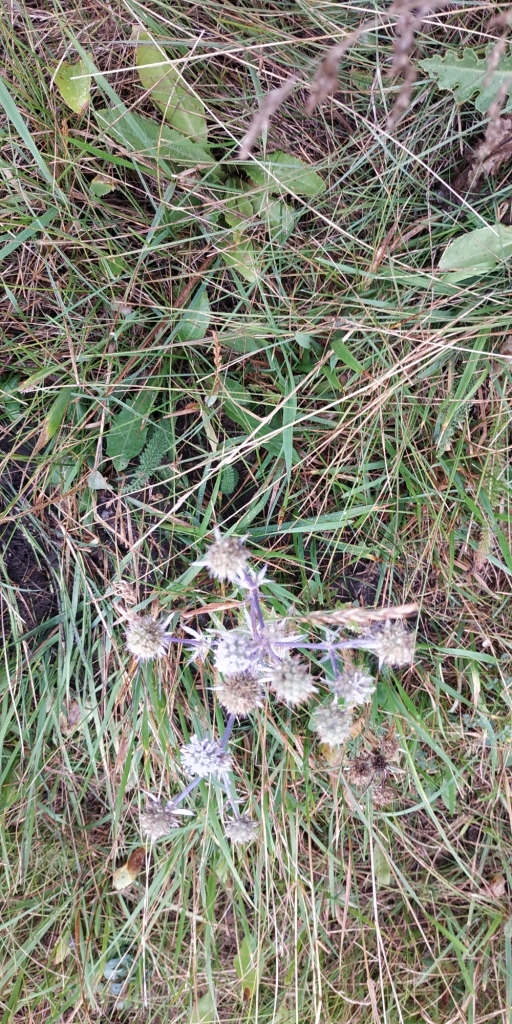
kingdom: Plantae
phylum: Tracheophyta
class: Magnoliopsida
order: Apiales
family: Apiaceae
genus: Eryngium
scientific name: Eryngium planum
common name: Blue eryngo
